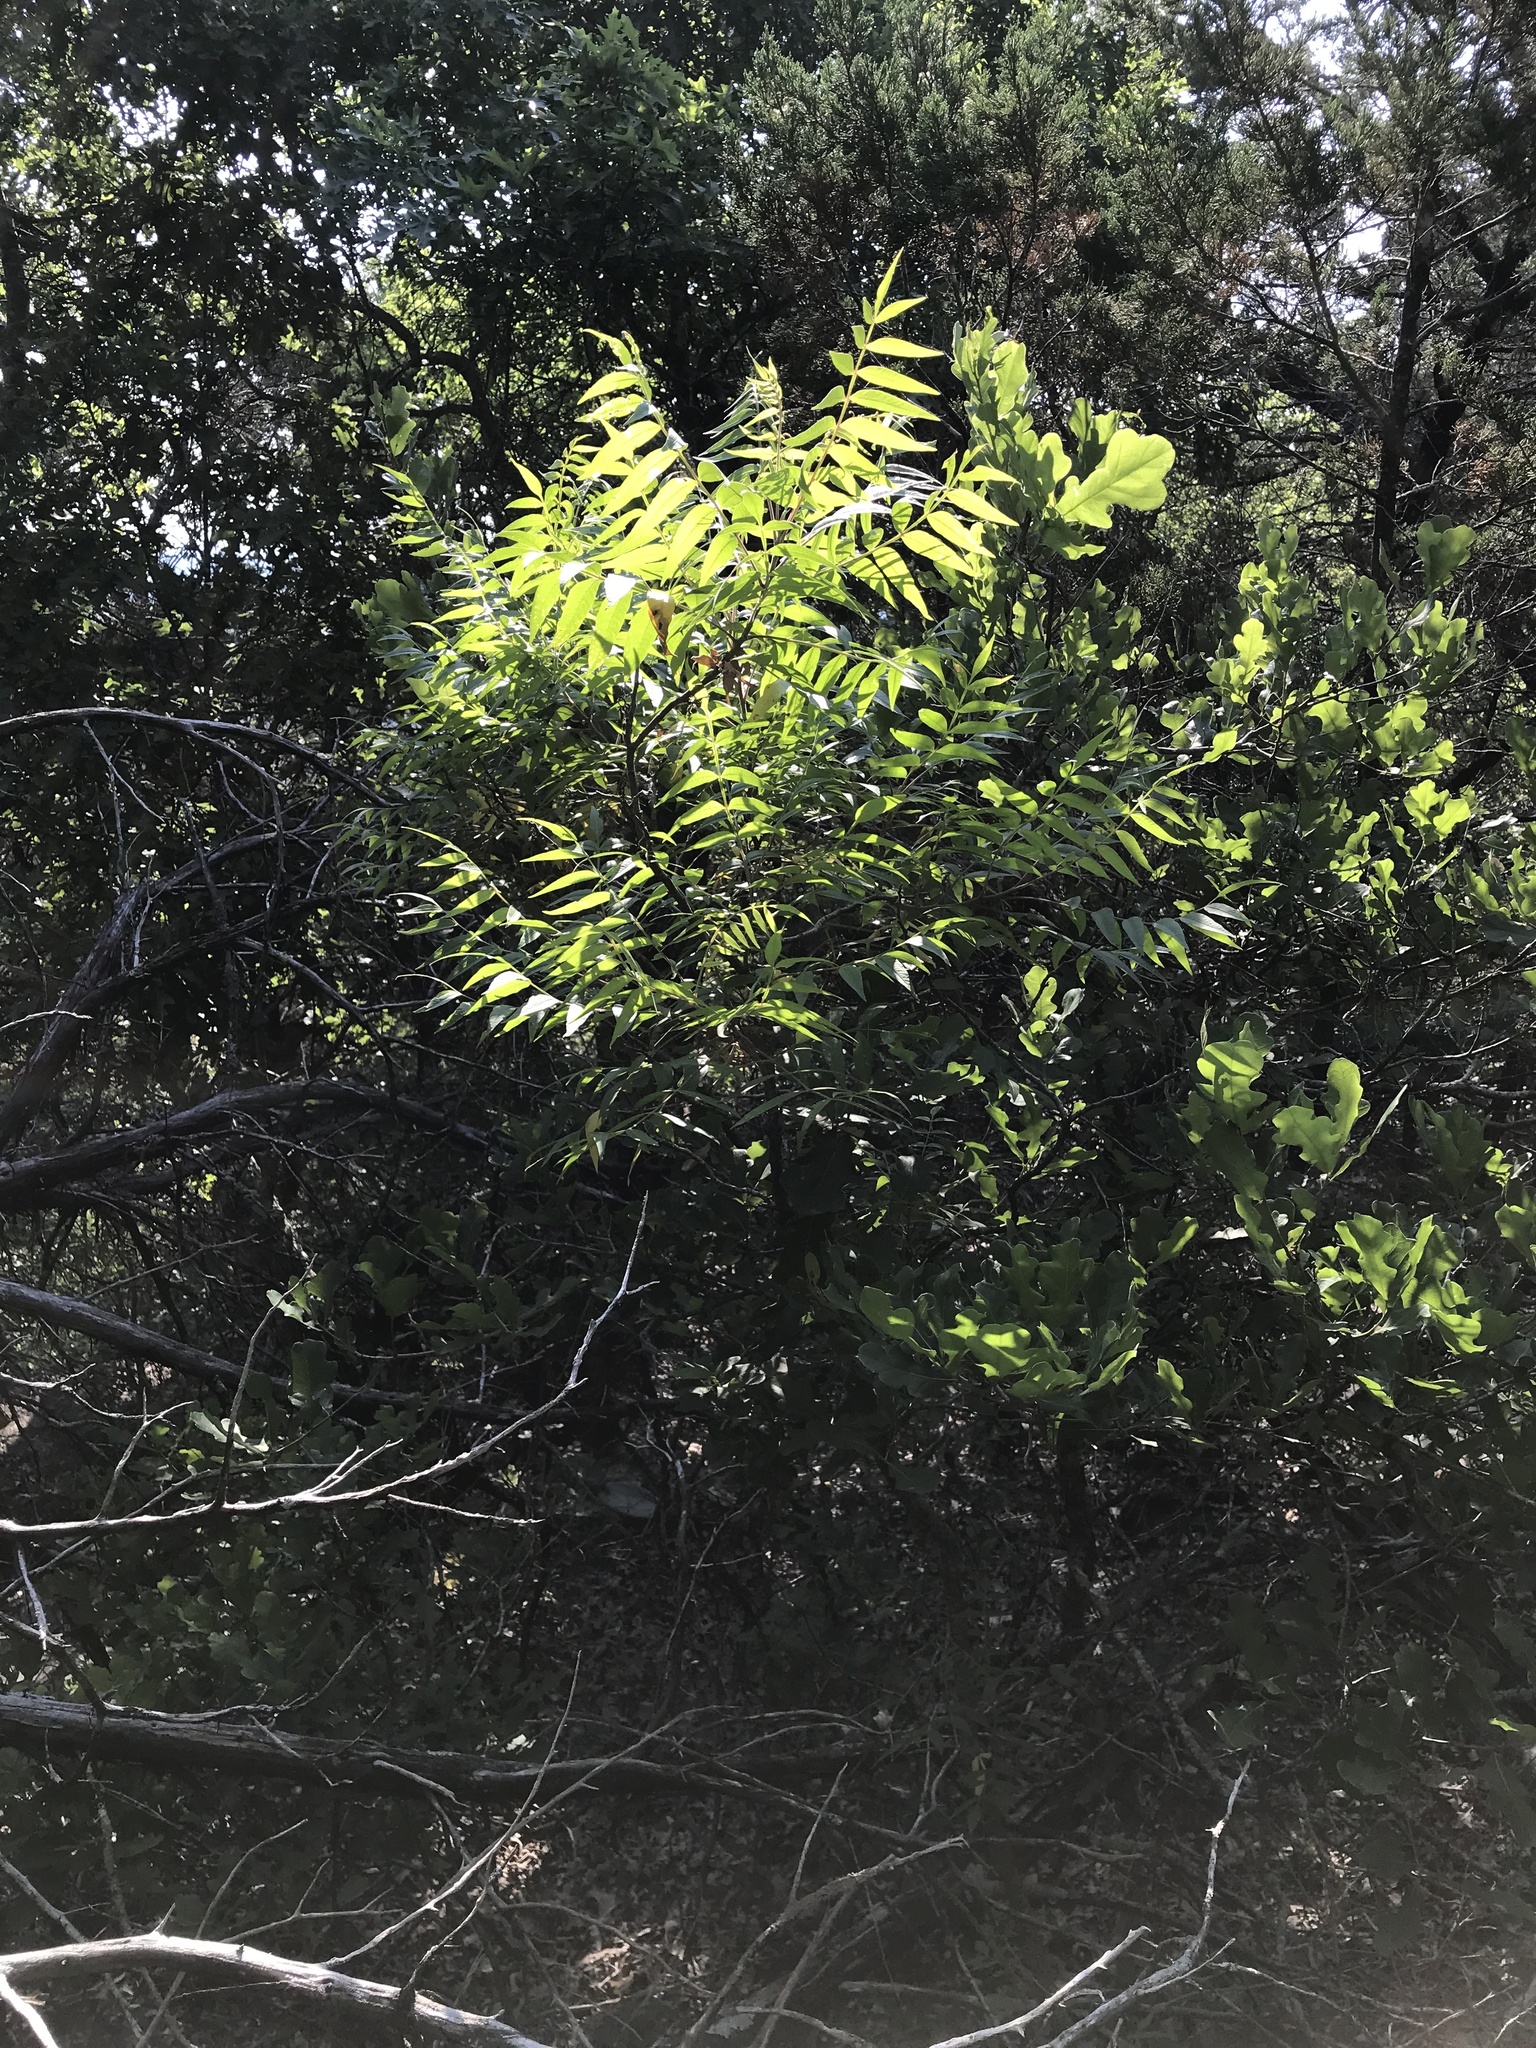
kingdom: Plantae
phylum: Tracheophyta
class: Magnoliopsida
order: Sapindales
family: Anacardiaceae
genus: Rhus
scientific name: Rhus lanceolata
